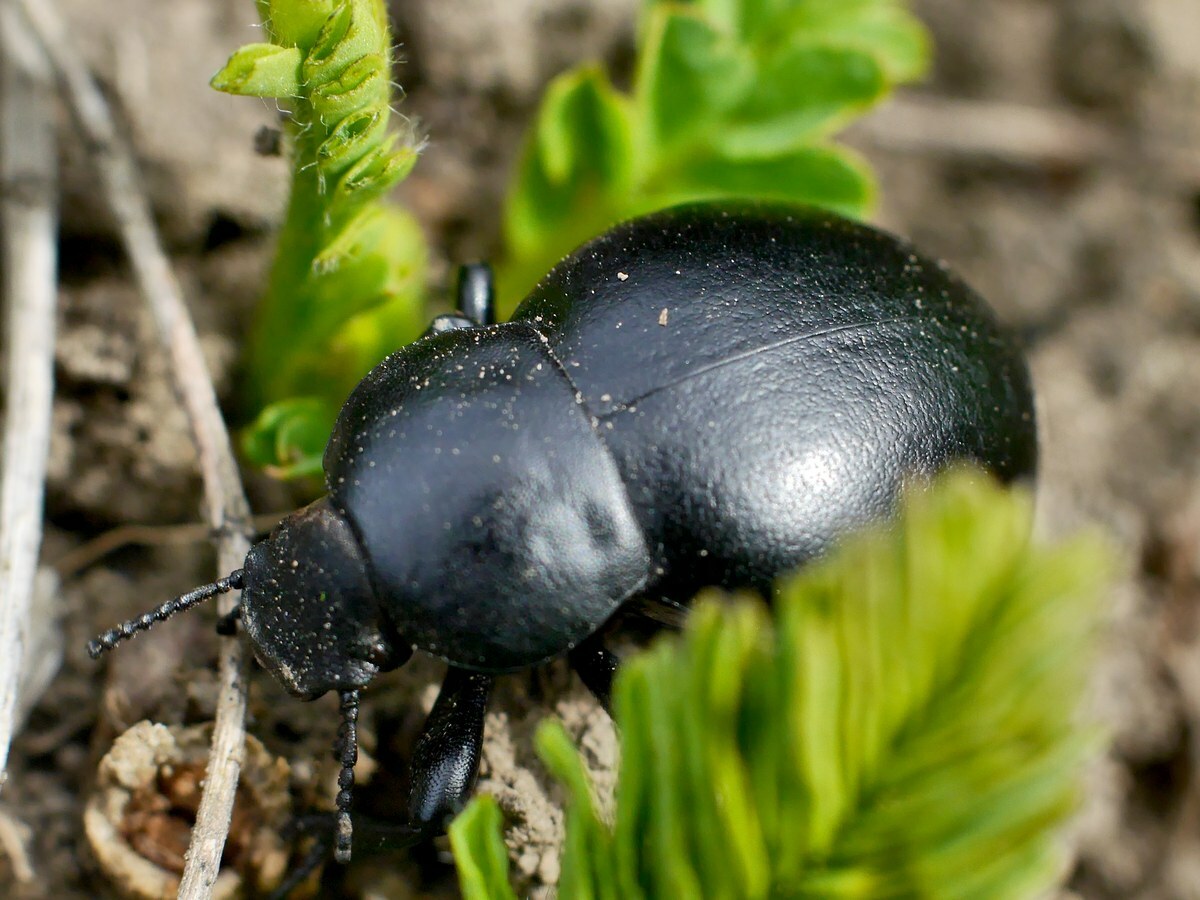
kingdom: Animalia
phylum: Arthropoda
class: Insecta
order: Coleoptera
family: Tenebrionidae
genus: Gnaptor
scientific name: Gnaptor spinimanus
